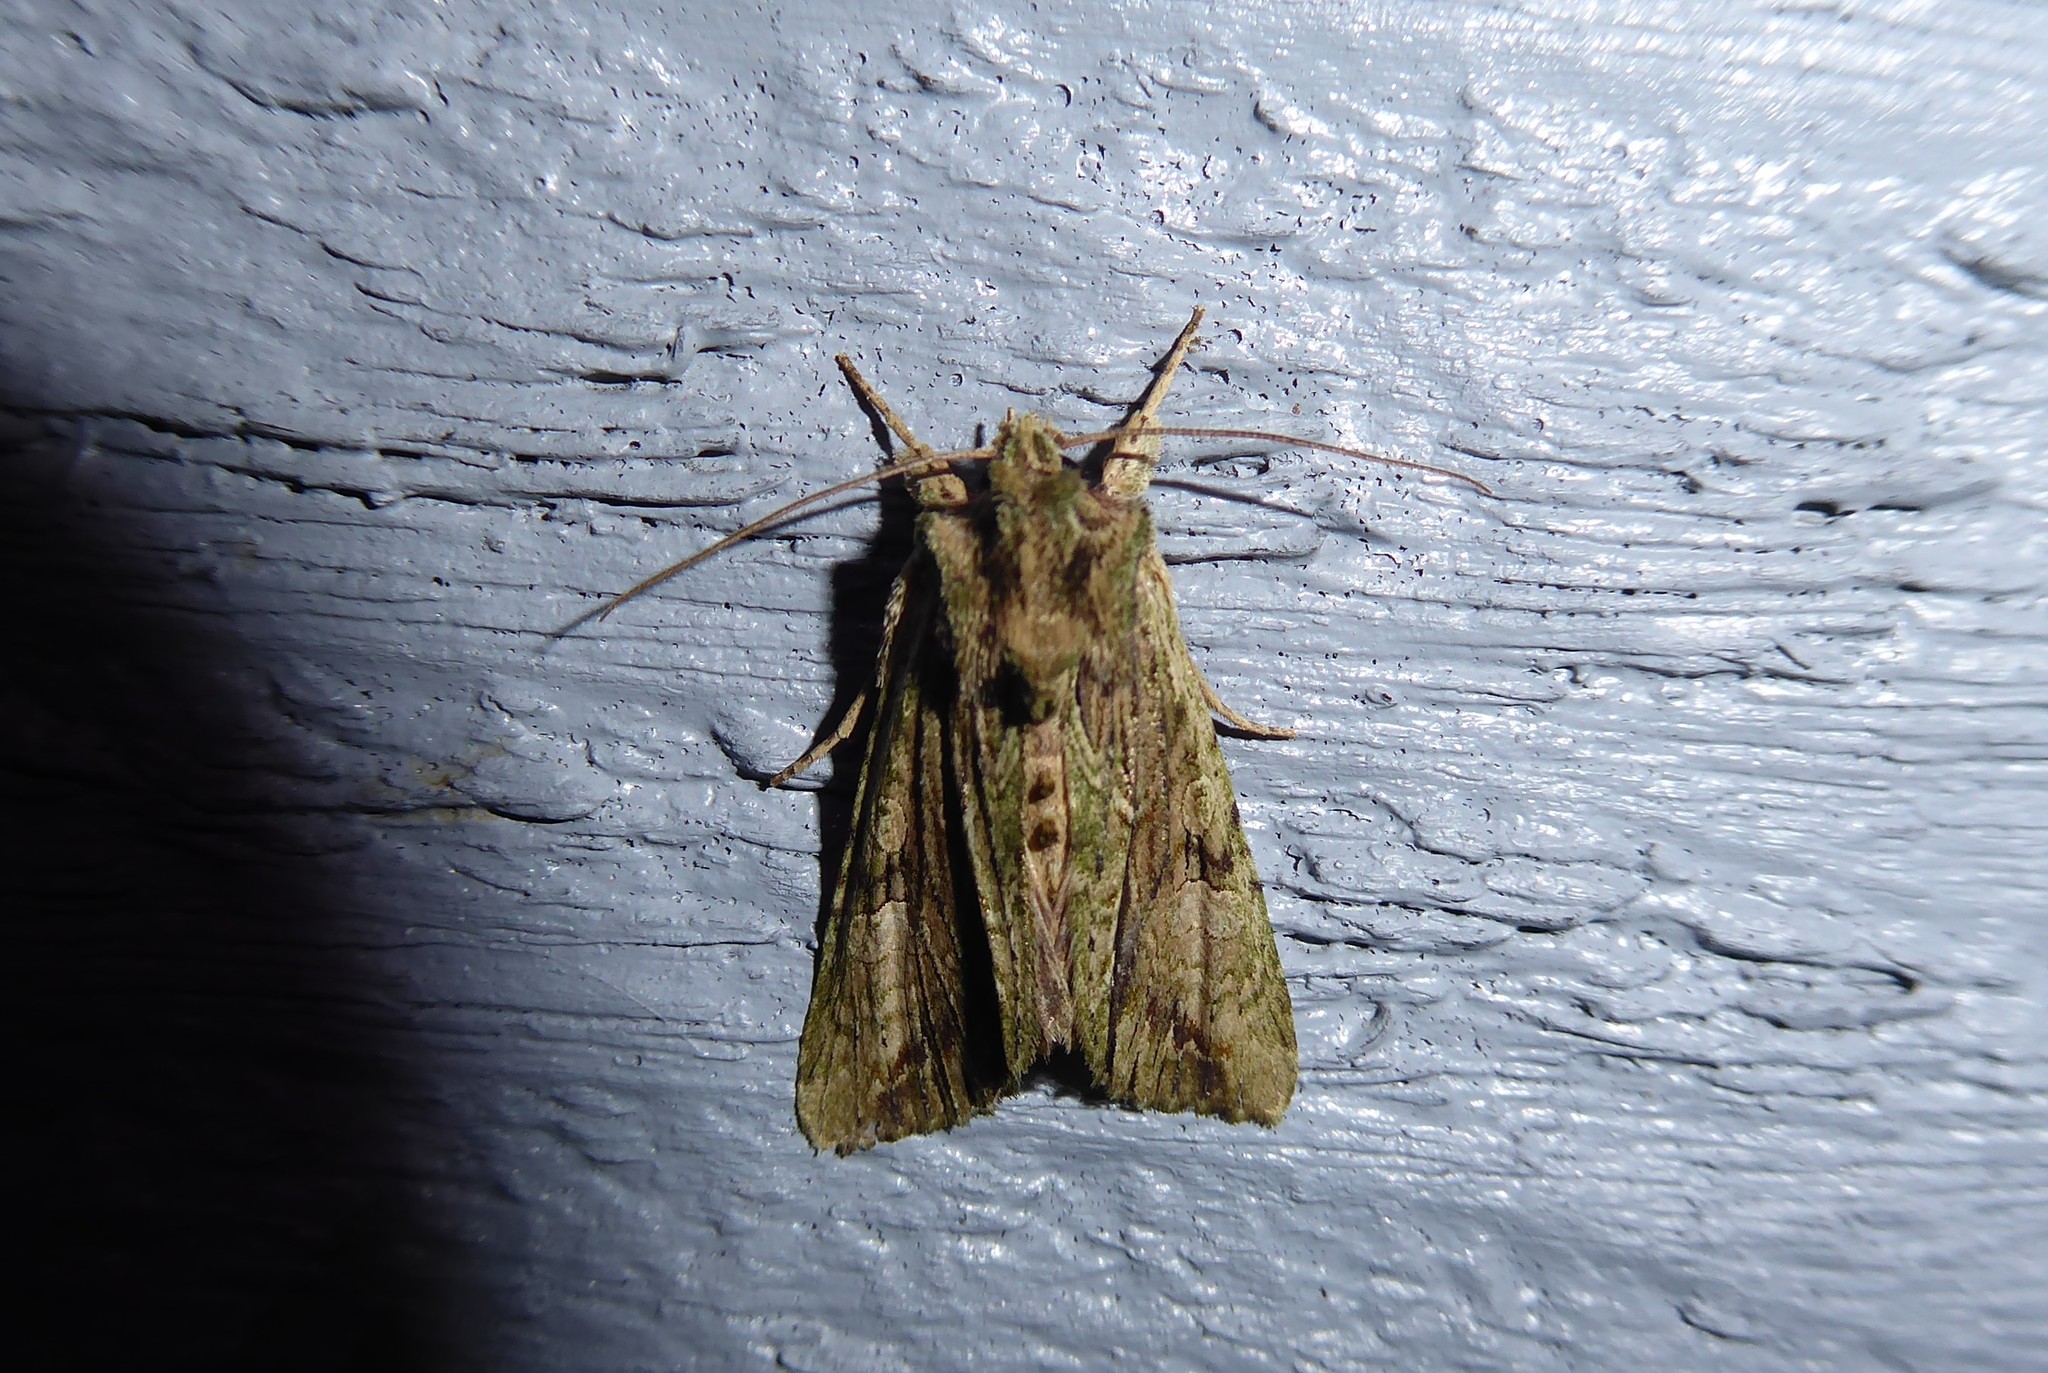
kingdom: Animalia
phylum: Arthropoda
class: Insecta
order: Lepidoptera
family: Noctuidae
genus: Meterana
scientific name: Meterana coeleno
